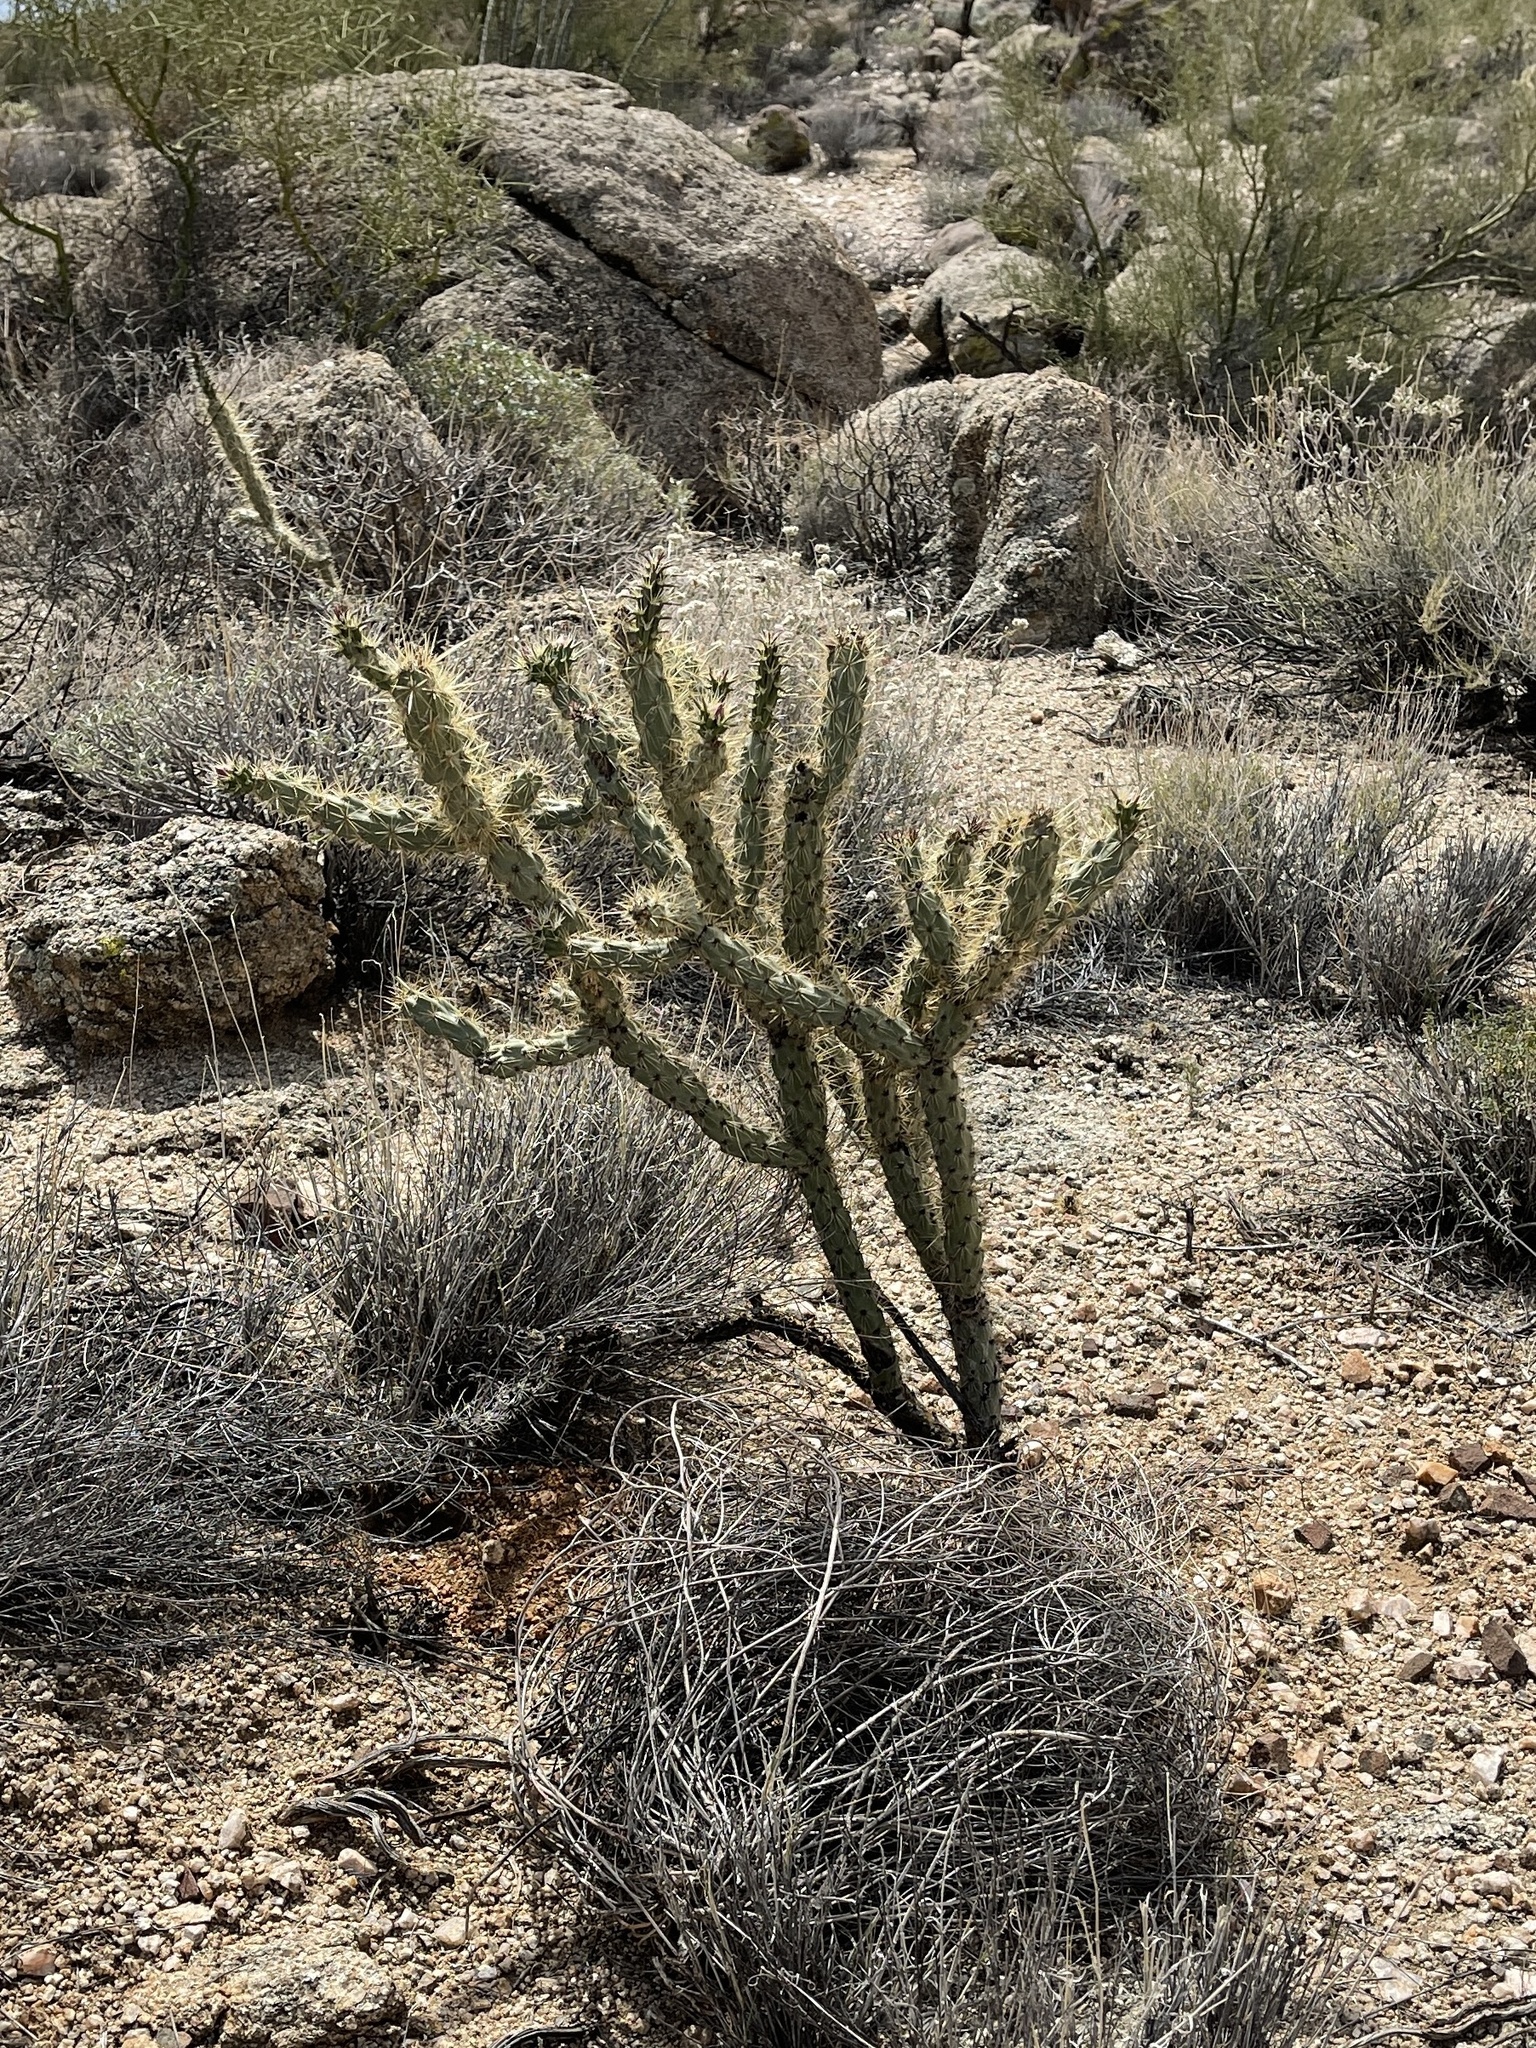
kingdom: Plantae
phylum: Tracheophyta
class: Magnoliopsida
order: Caryophyllales
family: Cactaceae
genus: Cylindropuntia
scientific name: Cylindropuntia acanthocarpa
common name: Buckhorn cholla
